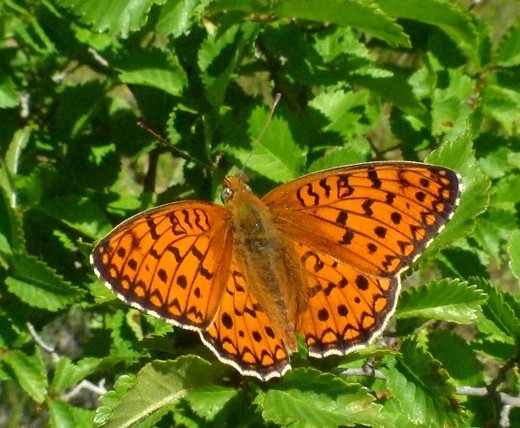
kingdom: Animalia
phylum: Arthropoda
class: Insecta
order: Lepidoptera
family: Nymphalidae
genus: Fabriciana
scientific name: Fabriciana niobe
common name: Niobe fritillary
